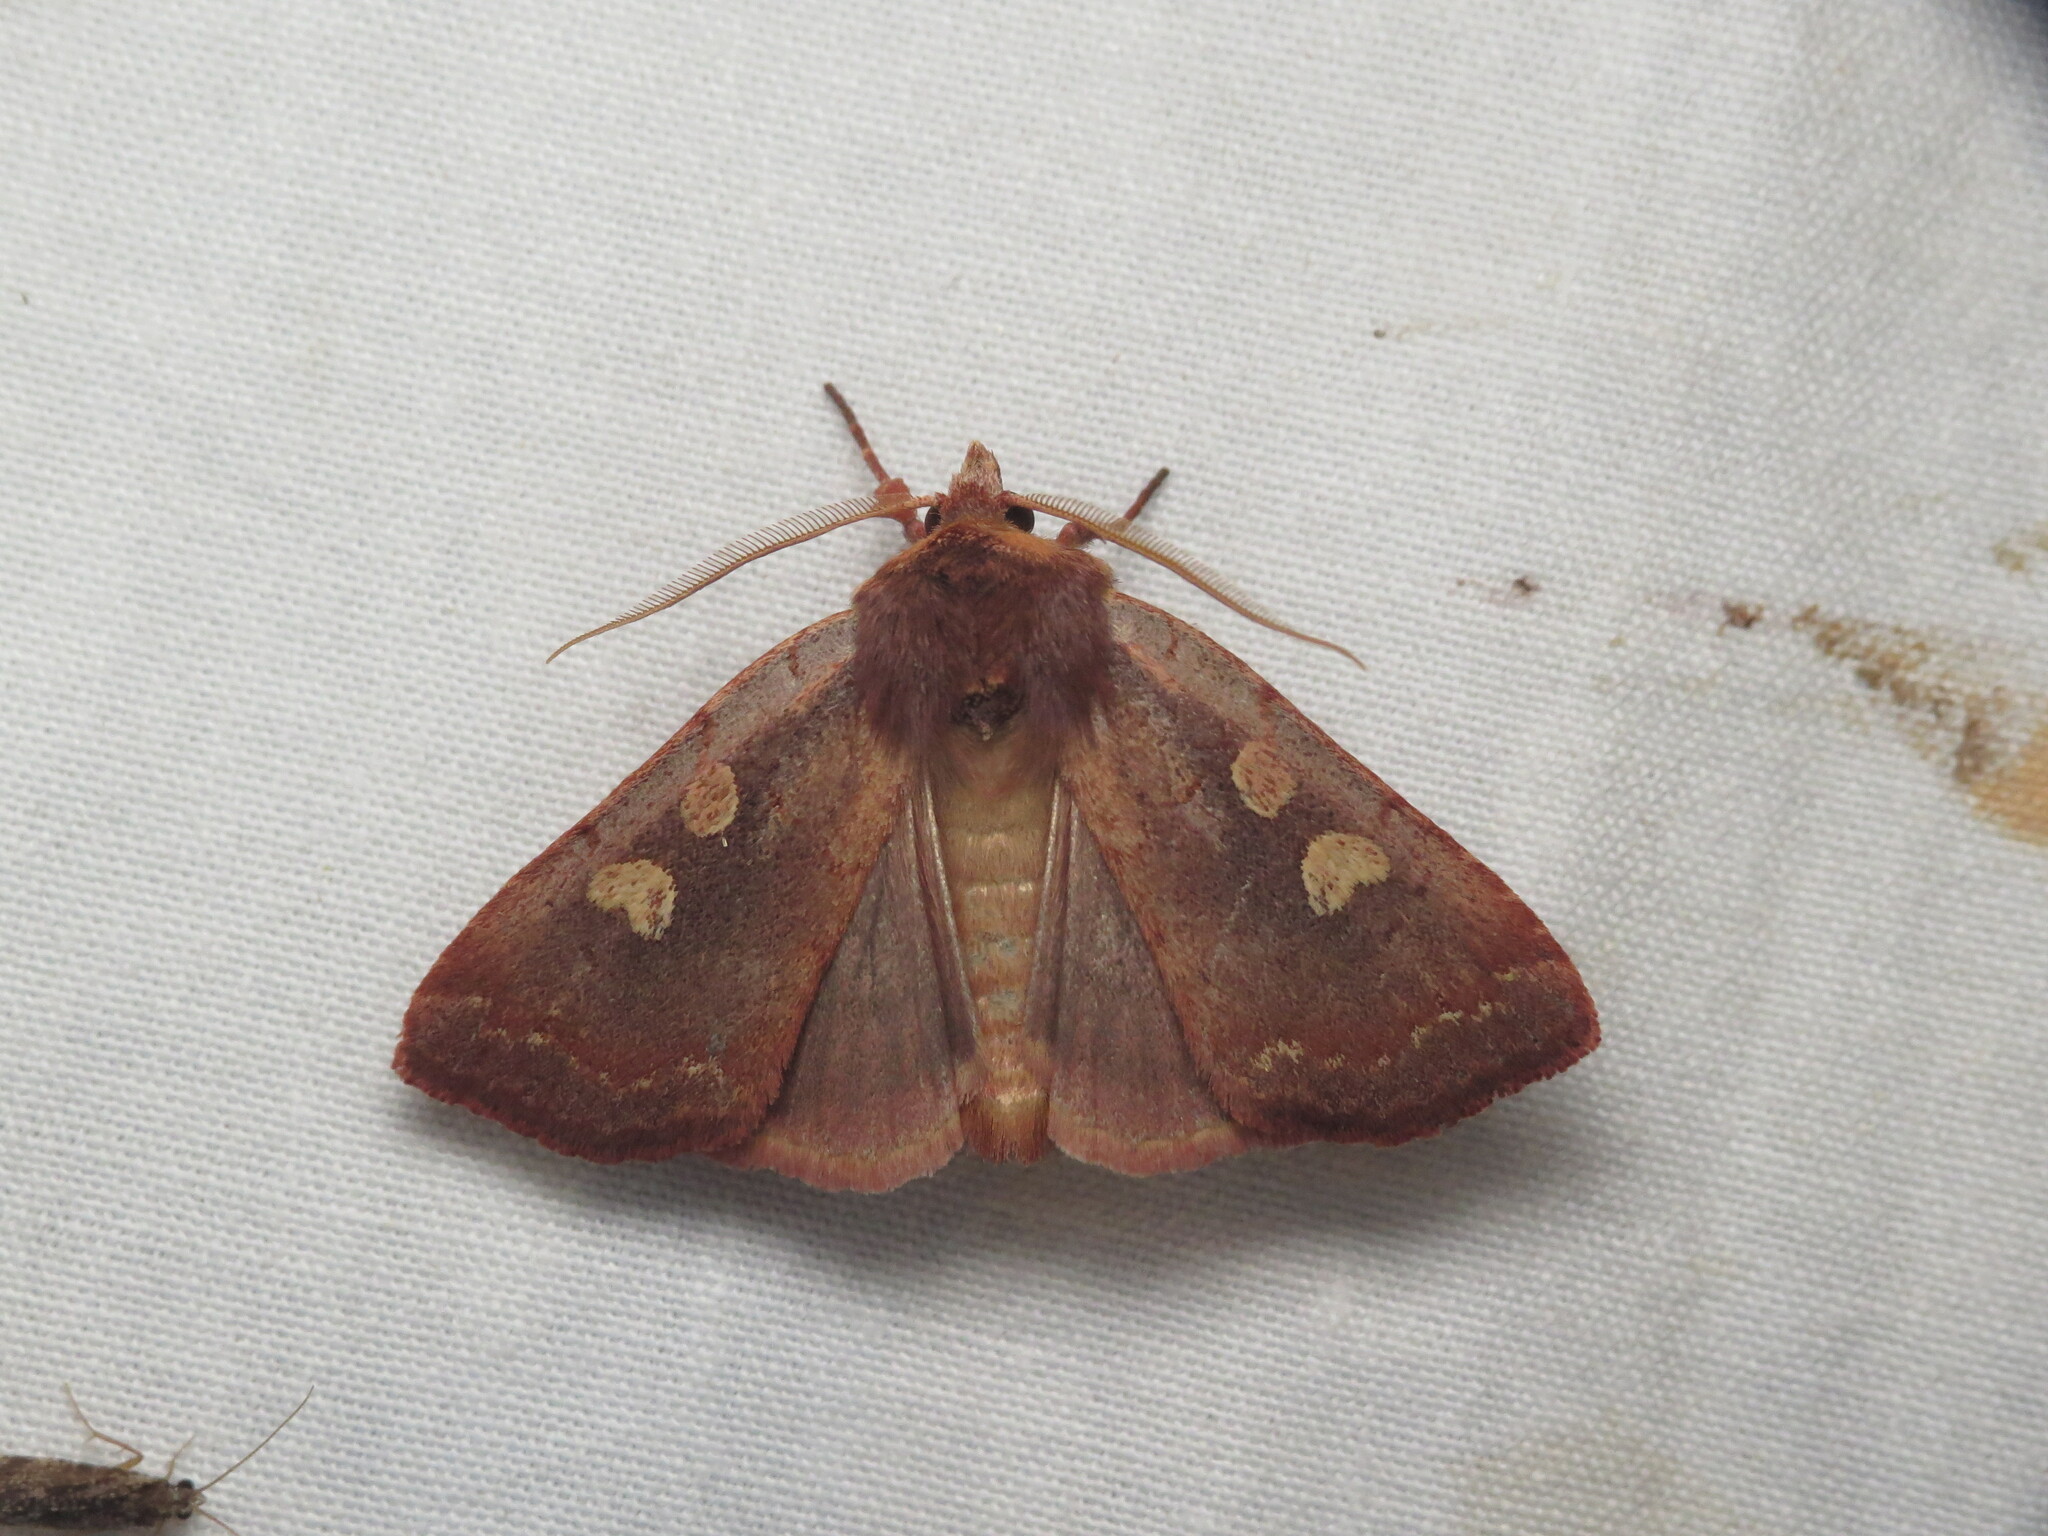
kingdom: Animalia
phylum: Arthropoda
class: Insecta
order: Lepidoptera
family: Noctuidae
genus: Xestia
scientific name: Xestia dilucida
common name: Dull reddish dart
